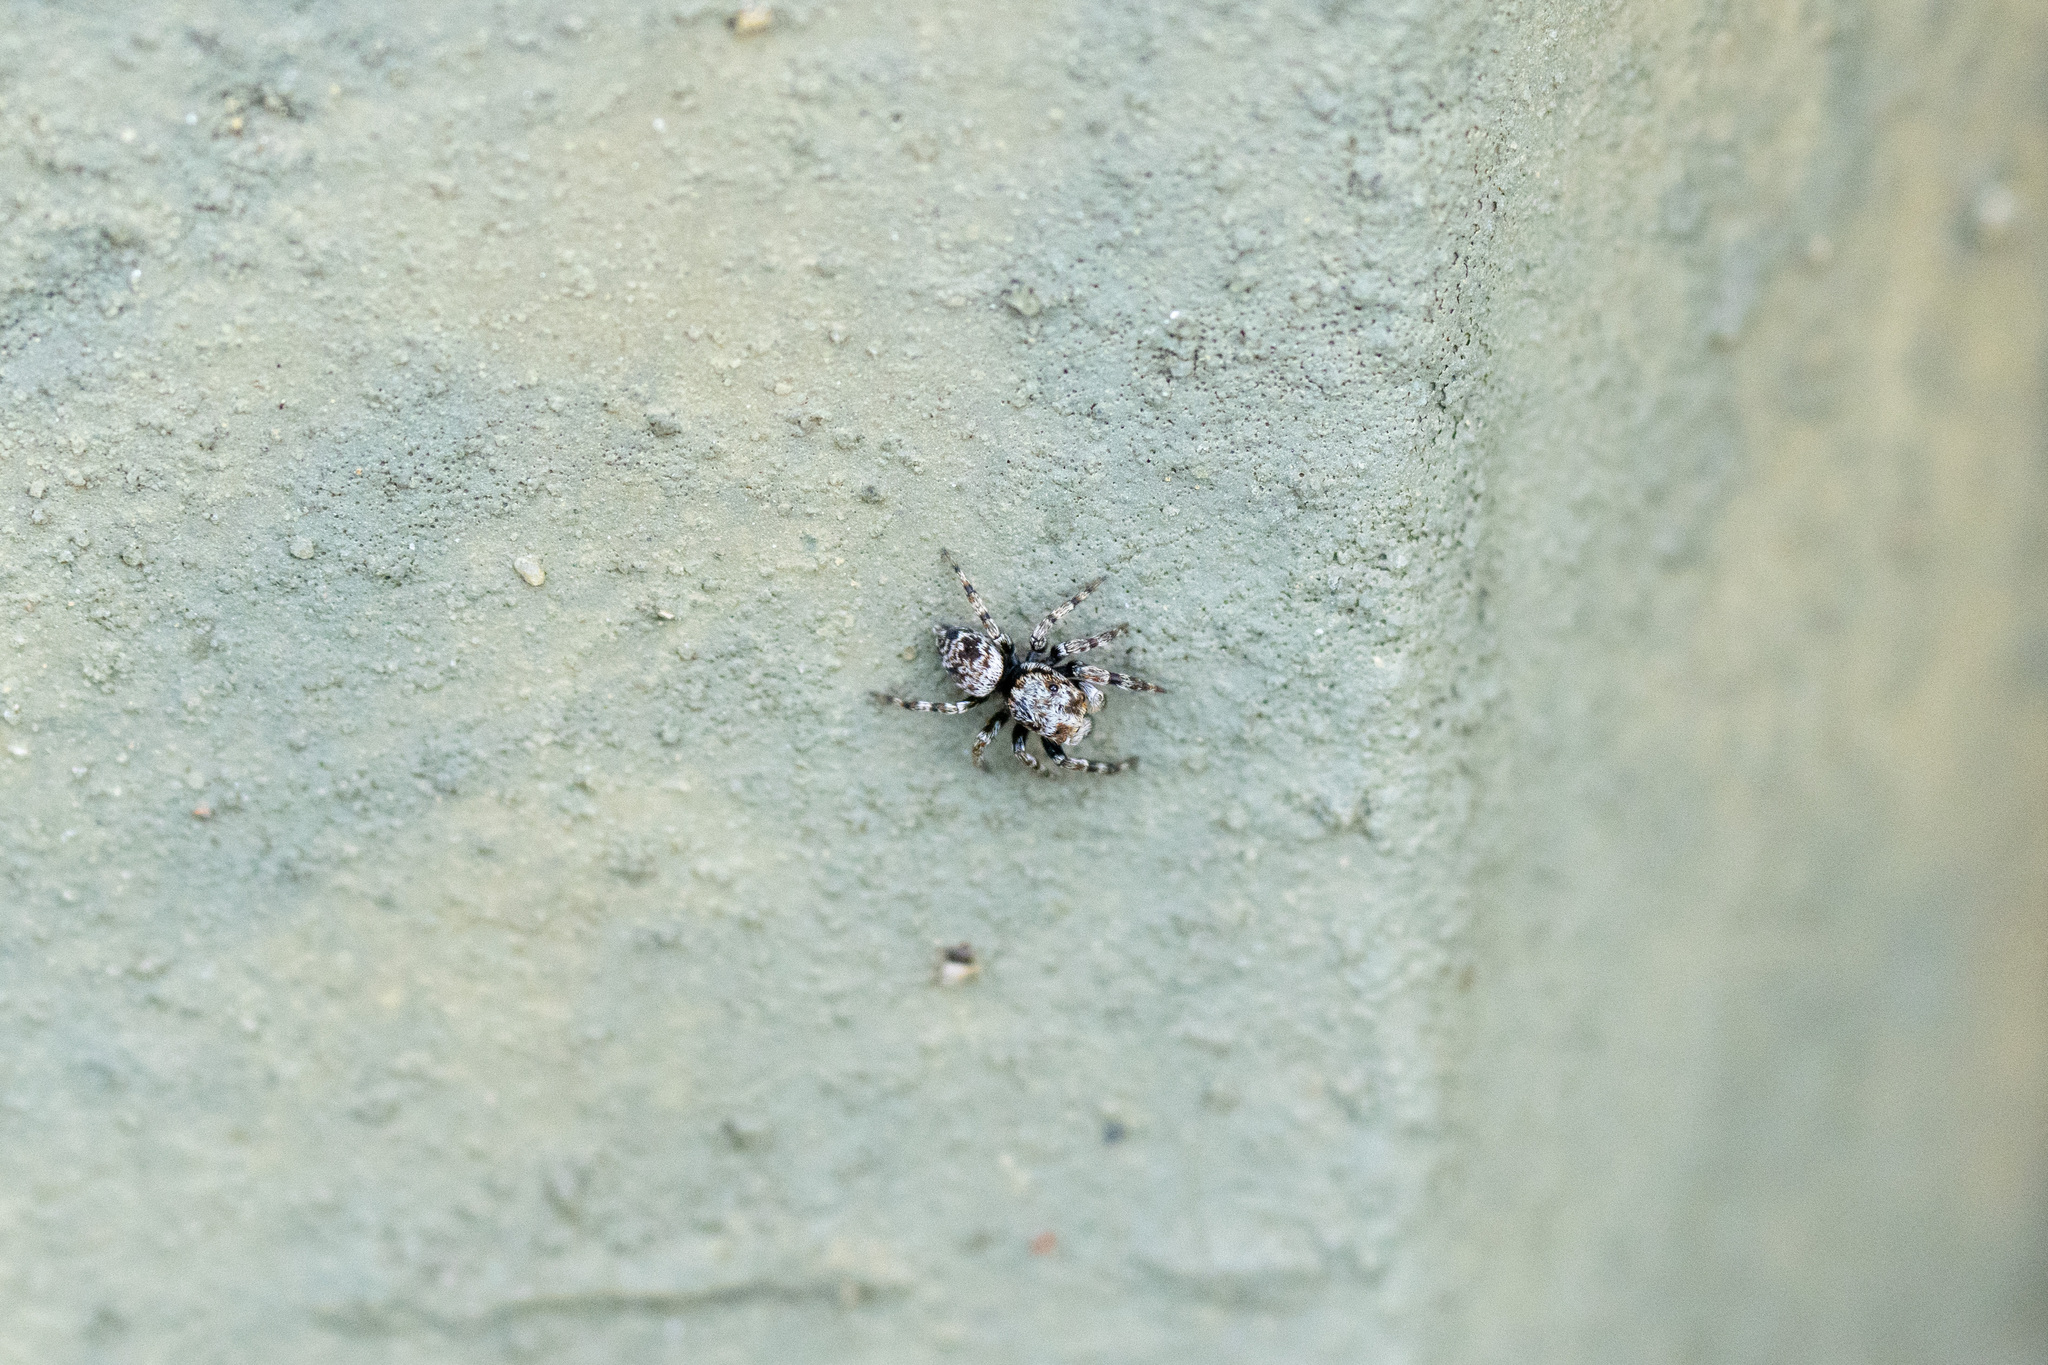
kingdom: Animalia
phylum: Arthropoda
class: Arachnida
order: Araneae
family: Salticidae
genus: Habrocestum
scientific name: Habrocestum hongkongiense
